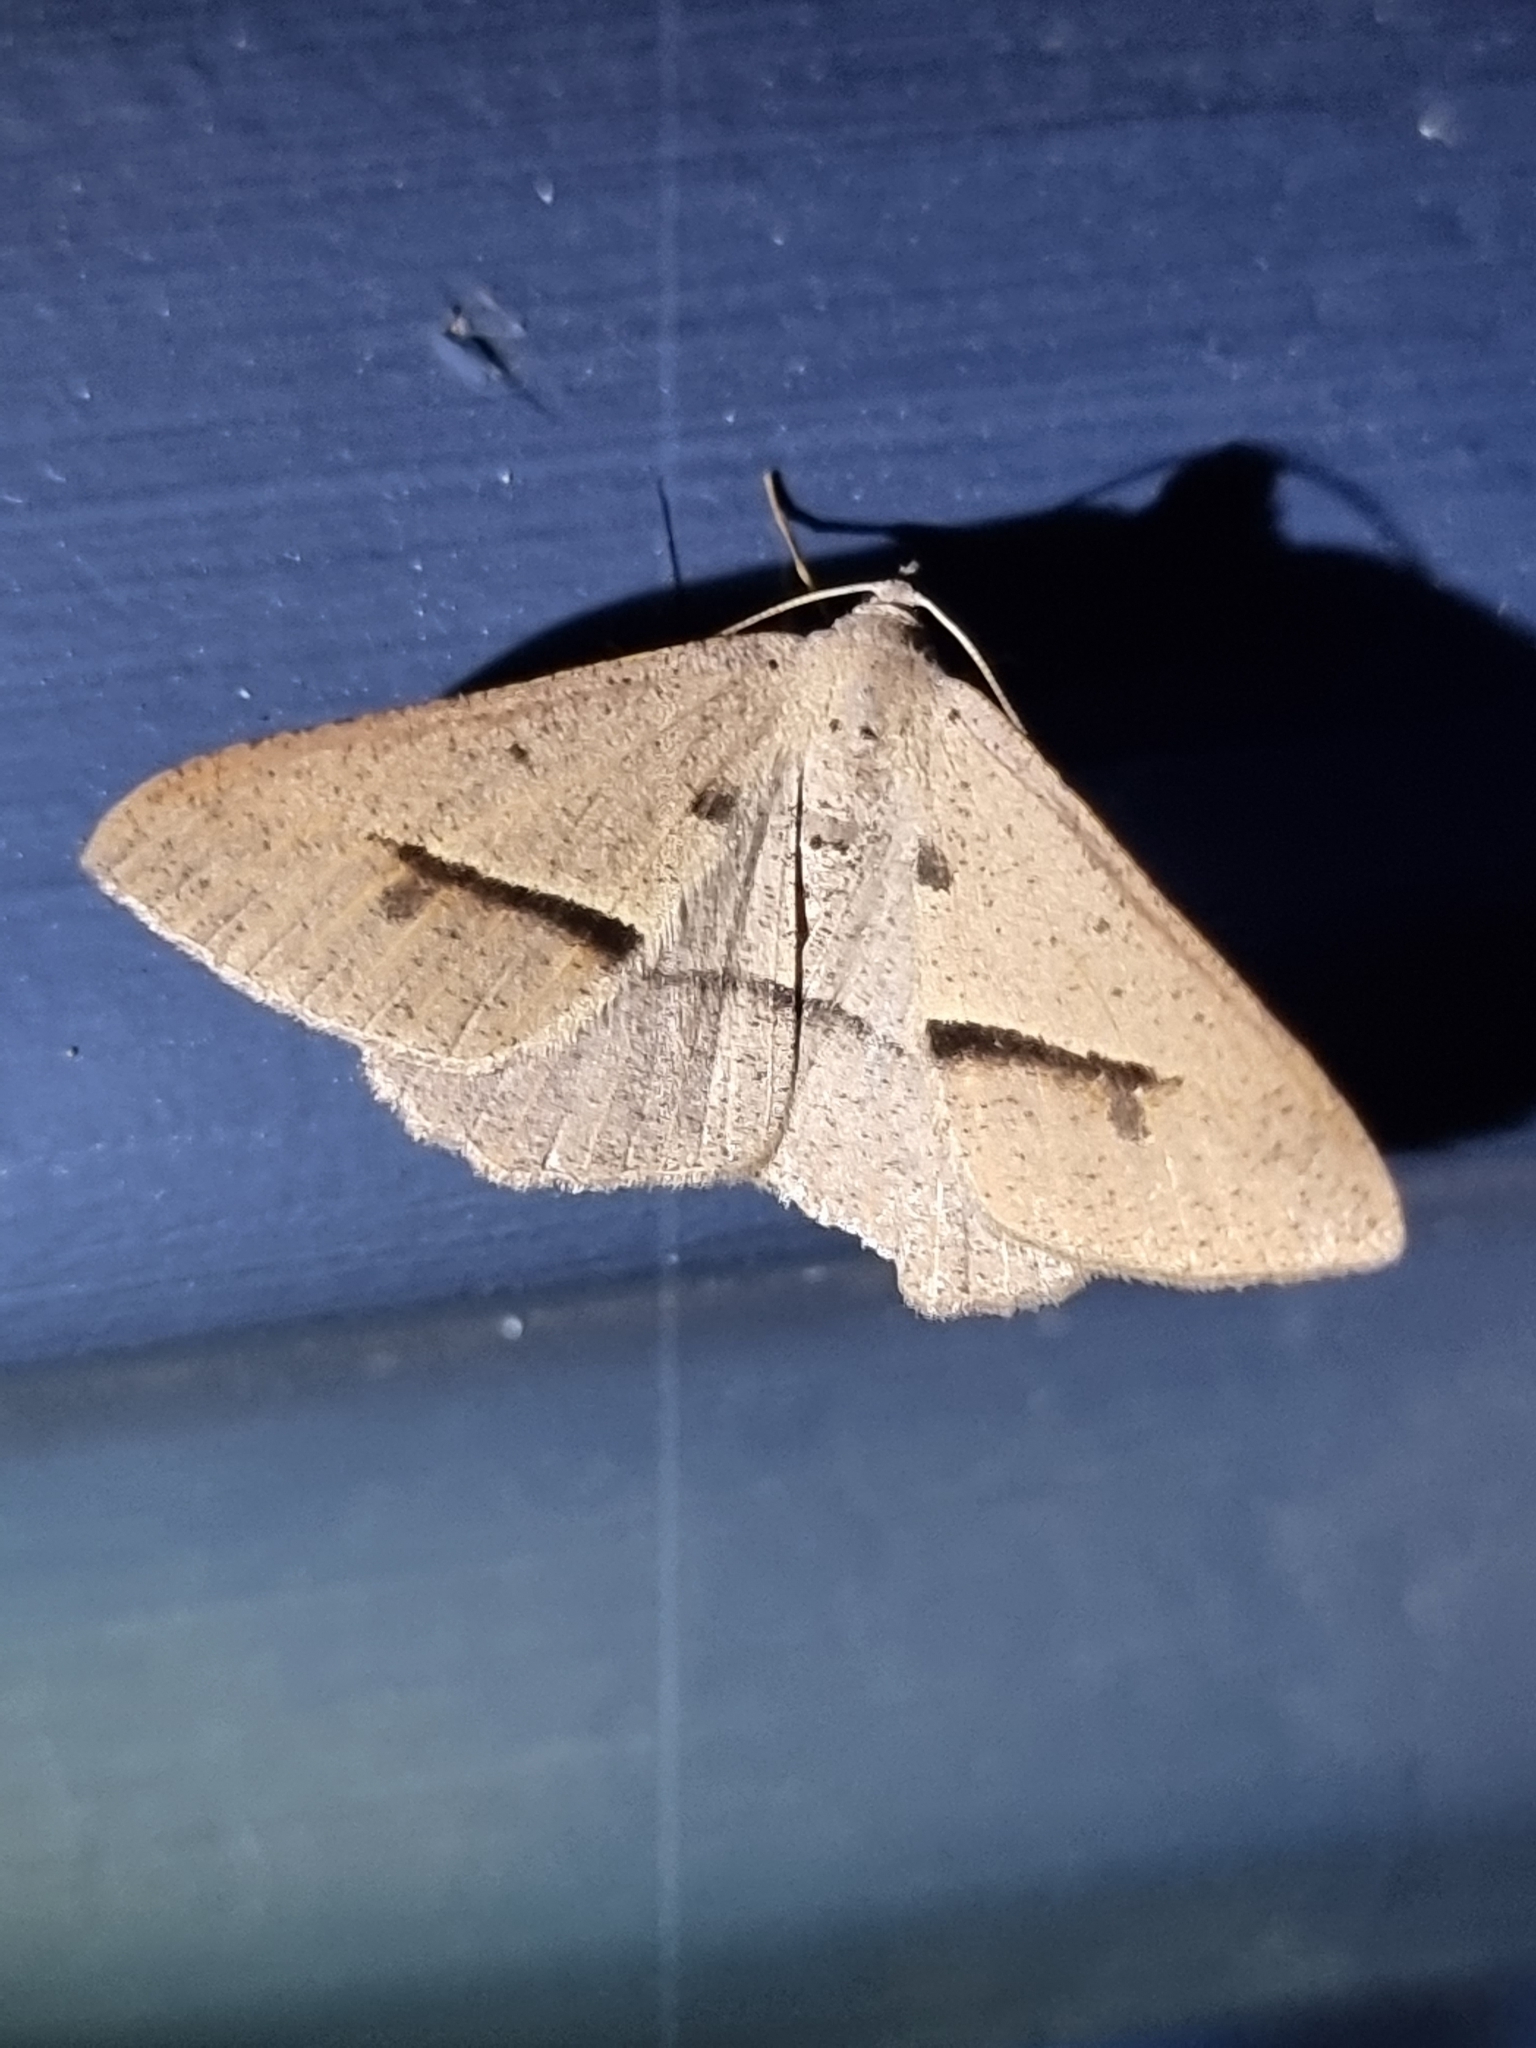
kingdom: Animalia
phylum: Arthropoda
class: Insecta
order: Lepidoptera
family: Geometridae
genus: Isturgia
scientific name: Isturgia
